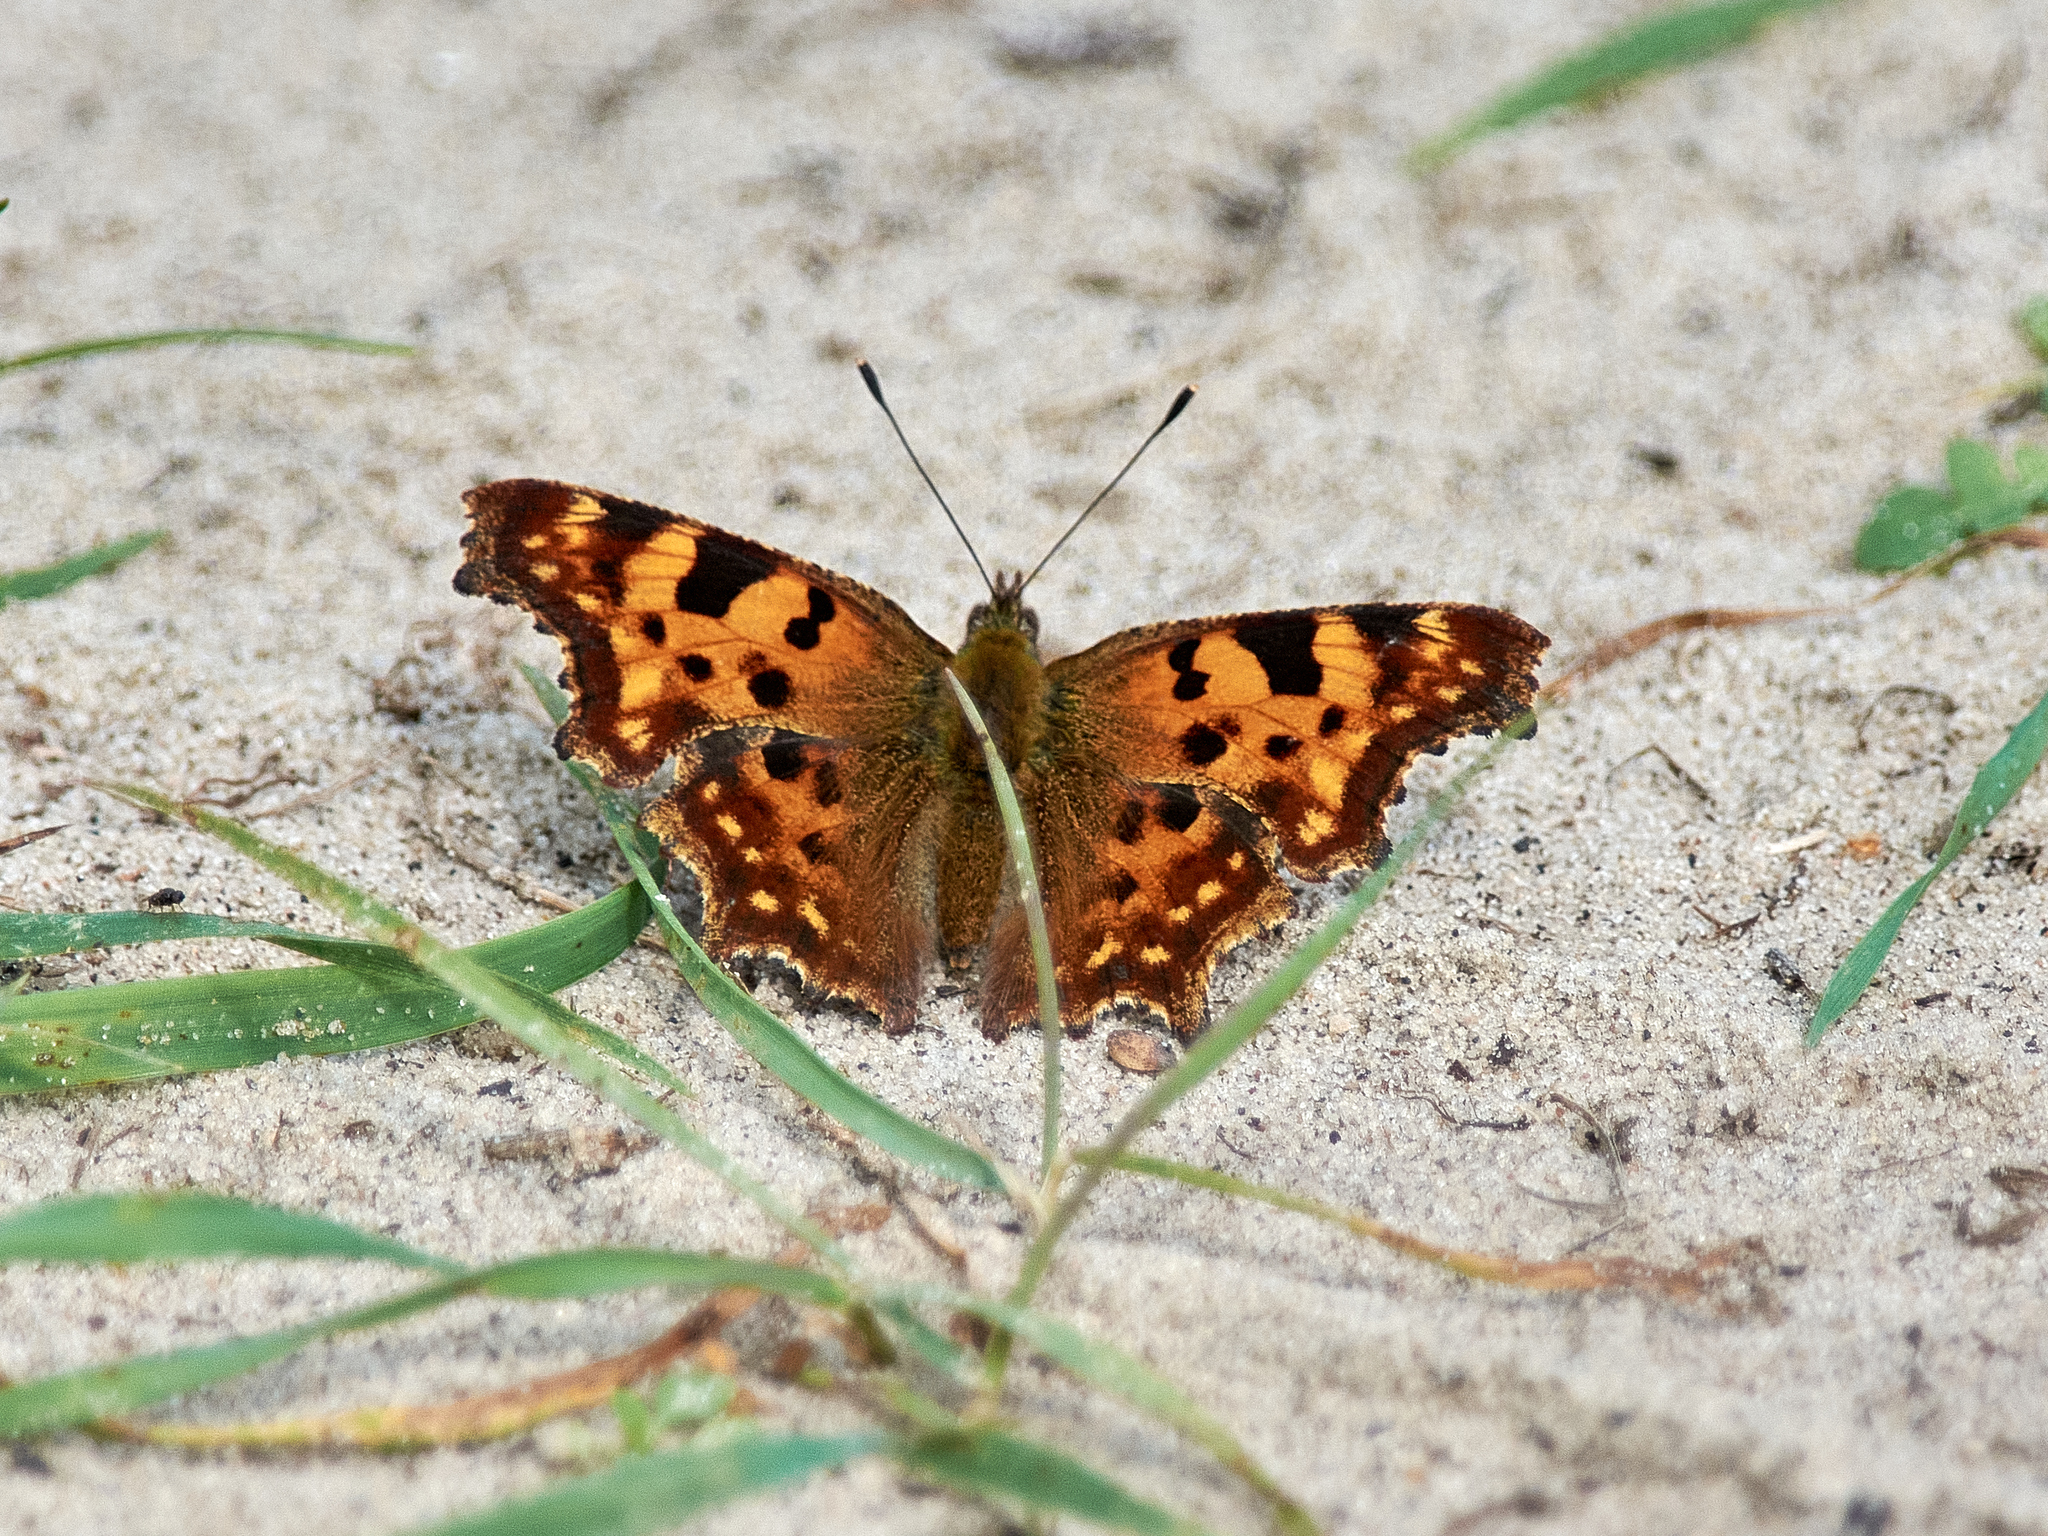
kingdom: Animalia
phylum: Arthropoda
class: Insecta
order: Lepidoptera
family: Nymphalidae
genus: Polygonia
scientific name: Polygonia c-album
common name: Comma
